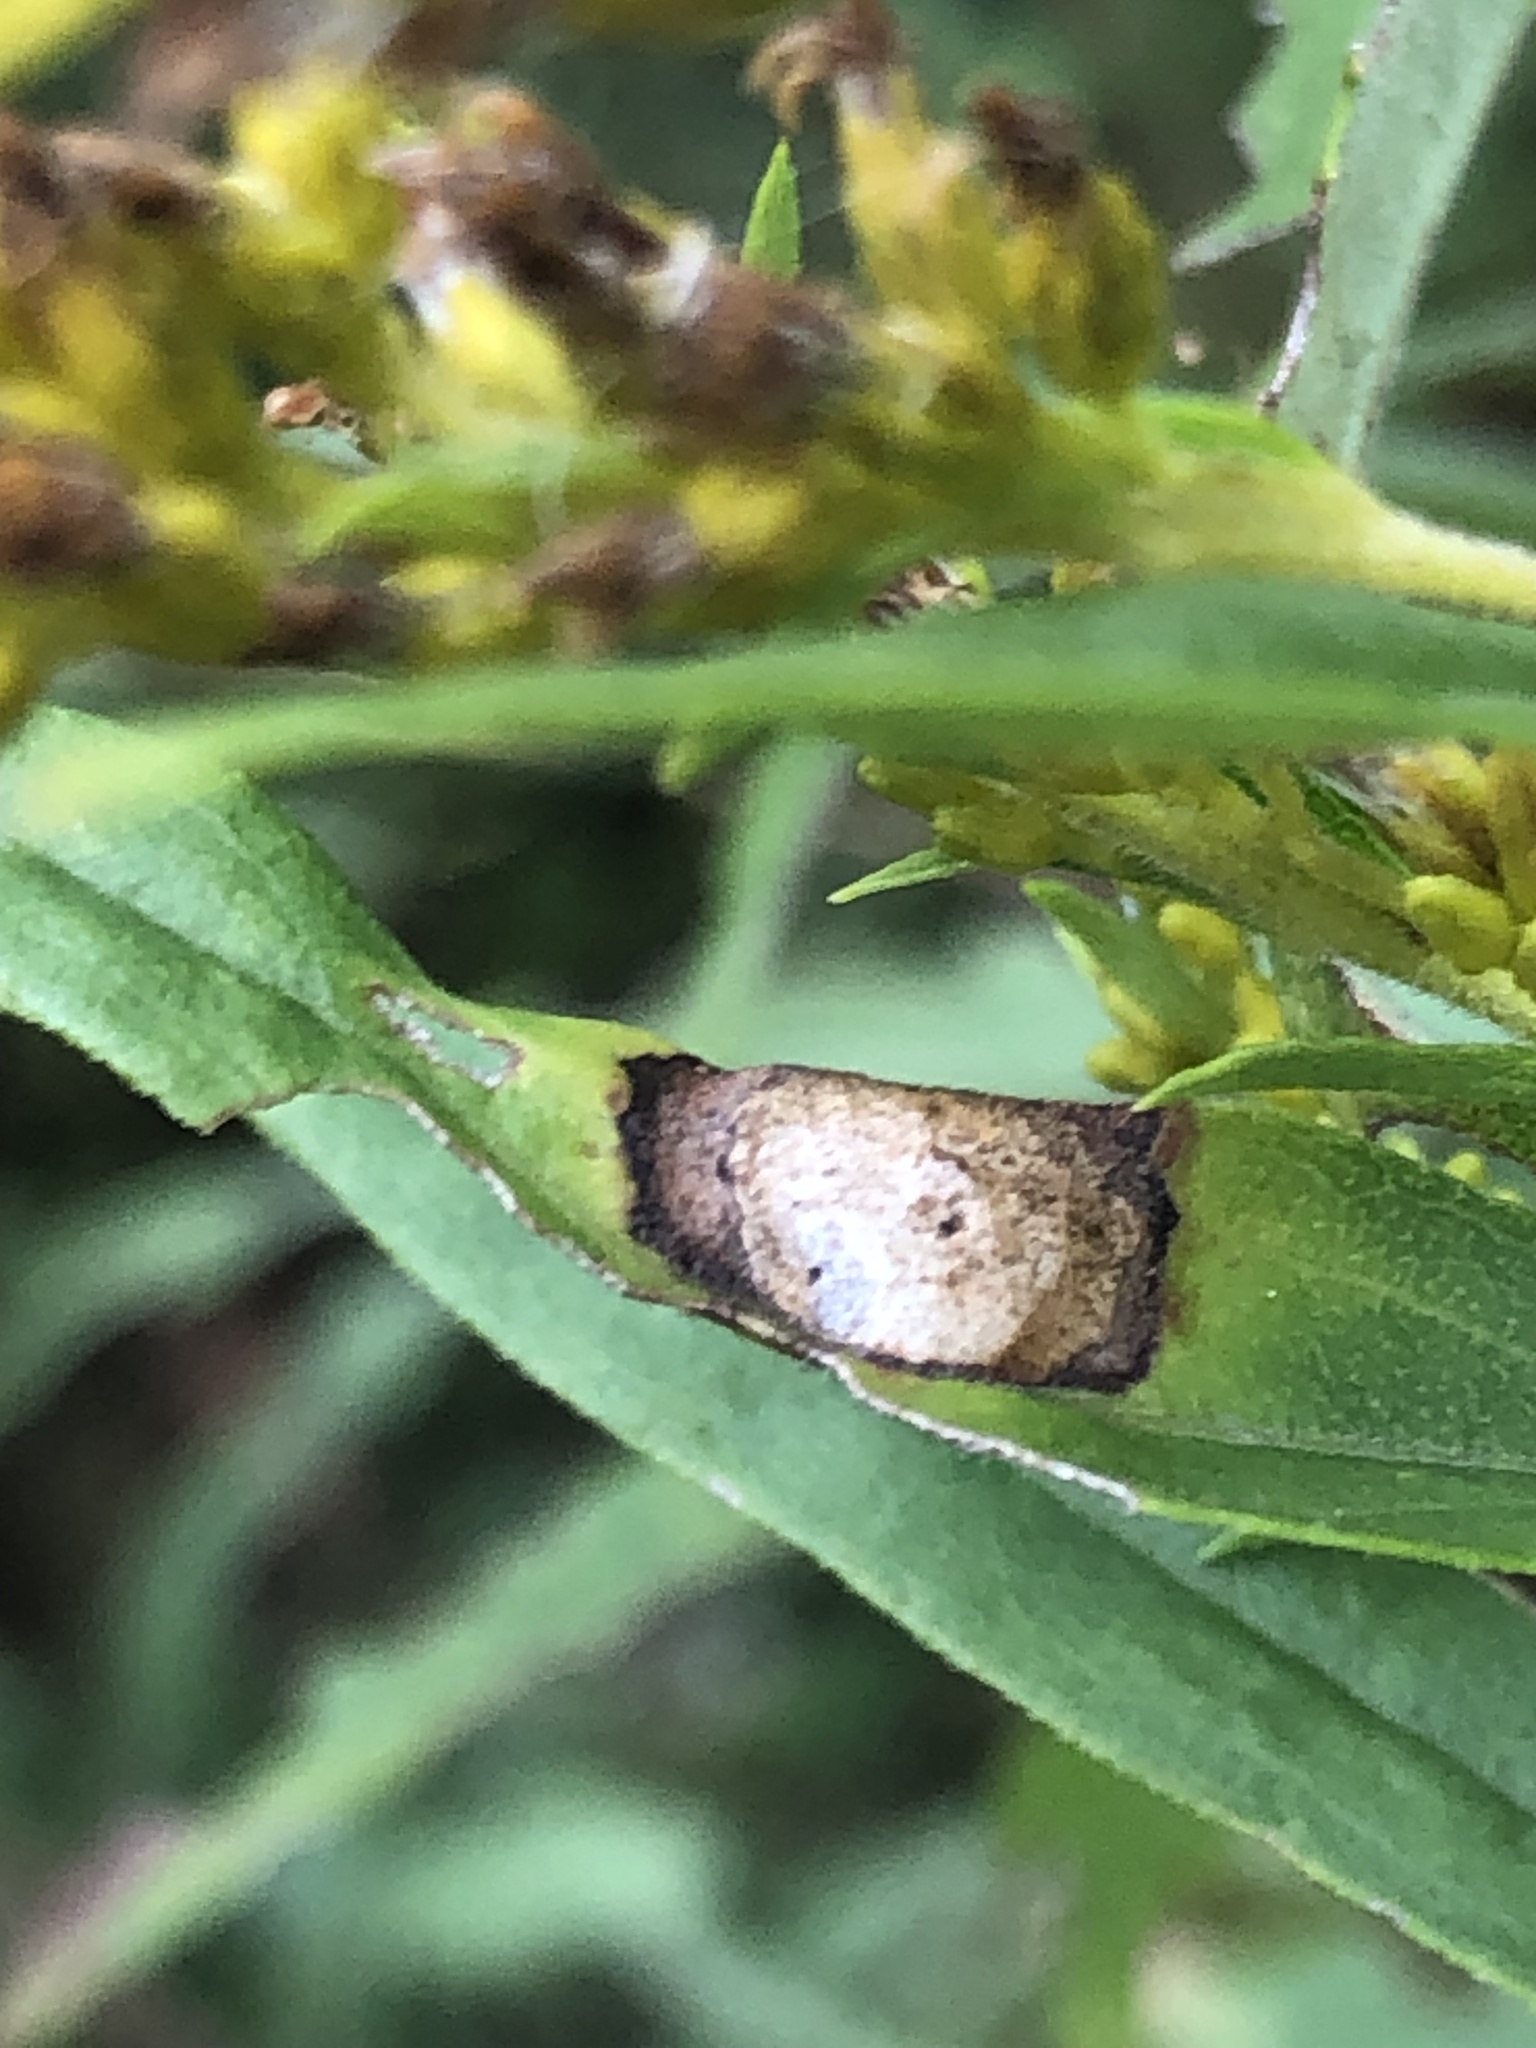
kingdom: Animalia
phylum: Arthropoda
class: Insecta
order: Diptera
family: Cecidomyiidae
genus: Asteromyia
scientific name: Asteromyia carbonifera
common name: Carbonifera goldenrod gall midge
